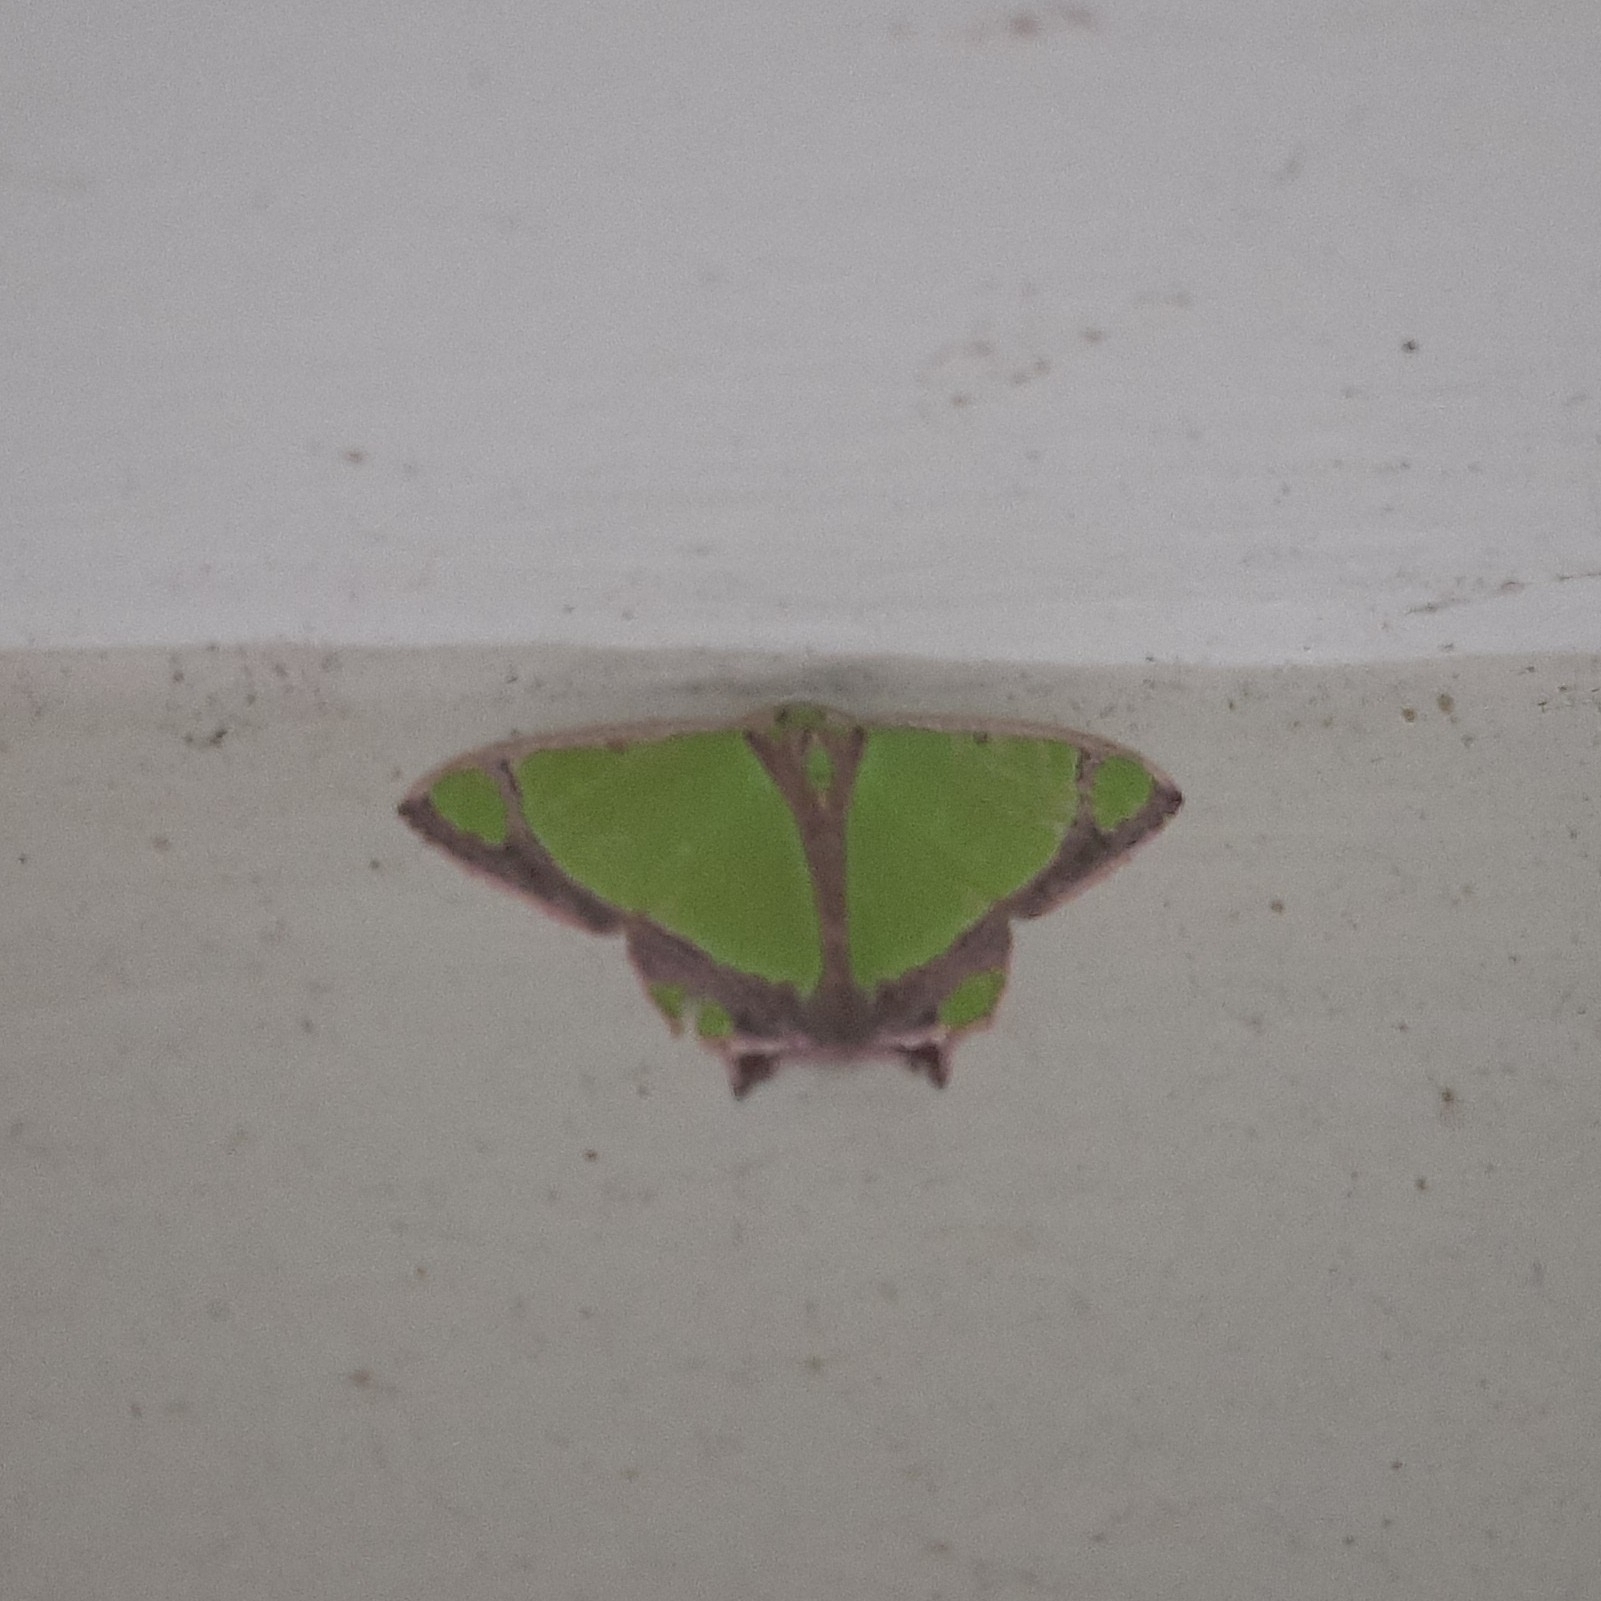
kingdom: Animalia
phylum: Arthropoda
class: Insecta
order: Lepidoptera
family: Geometridae
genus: Agathia
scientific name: Agathia laetata
